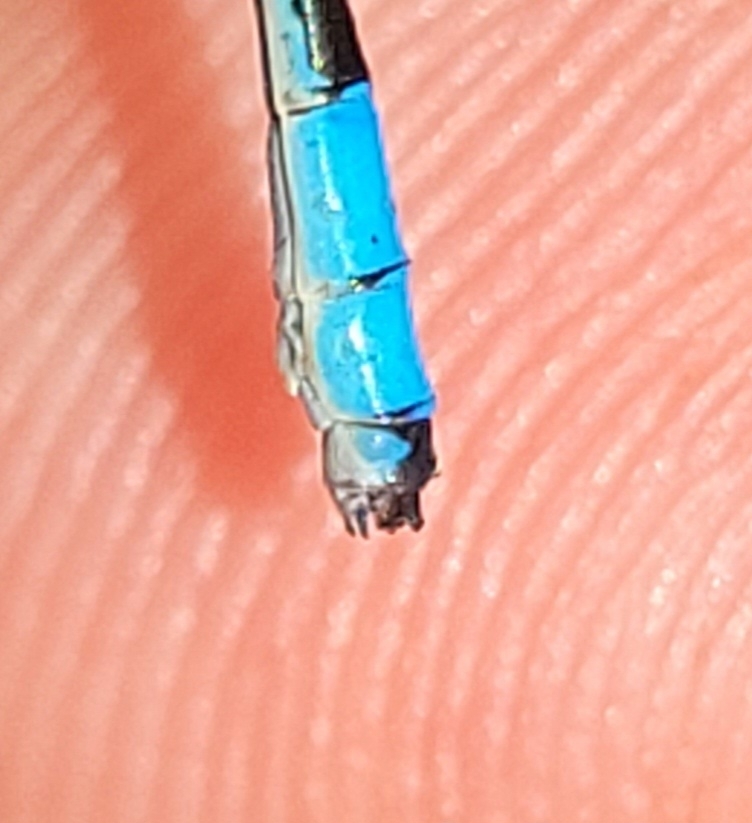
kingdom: Animalia
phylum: Arthropoda
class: Insecta
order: Odonata
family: Coenagrionidae
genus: Enallagma
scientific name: Enallagma ebrium
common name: Marsh bluet
